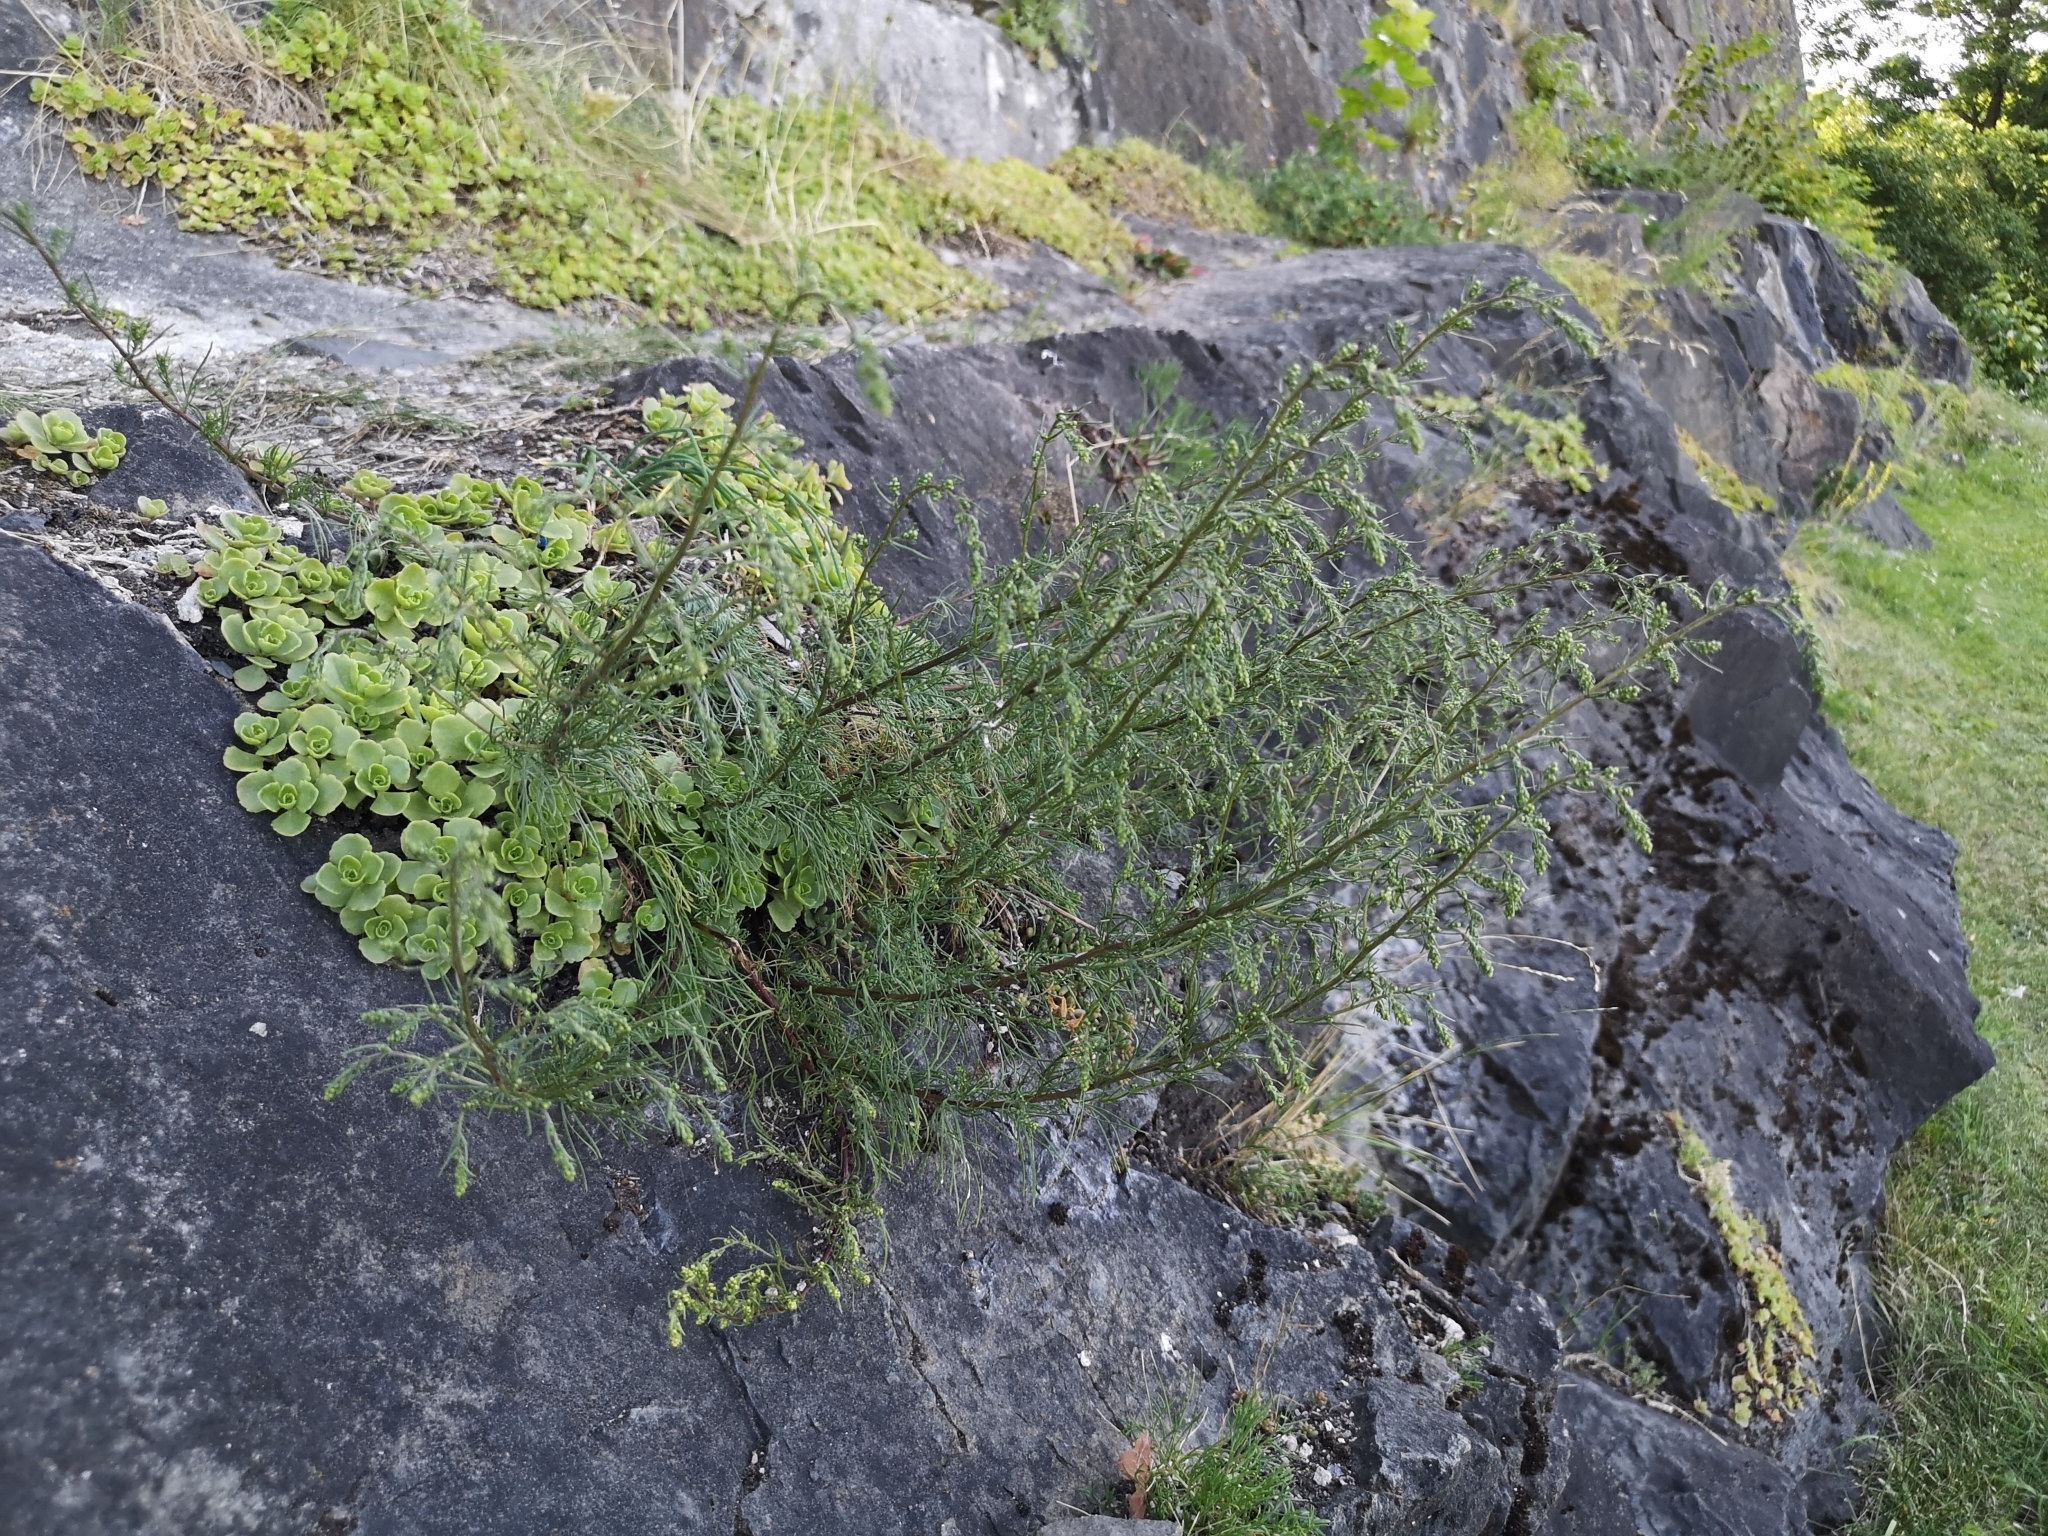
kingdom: Plantae
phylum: Tracheophyta
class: Magnoliopsida
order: Asterales
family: Asteraceae
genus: Artemisia
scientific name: Artemisia campestris
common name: Field wormwood
